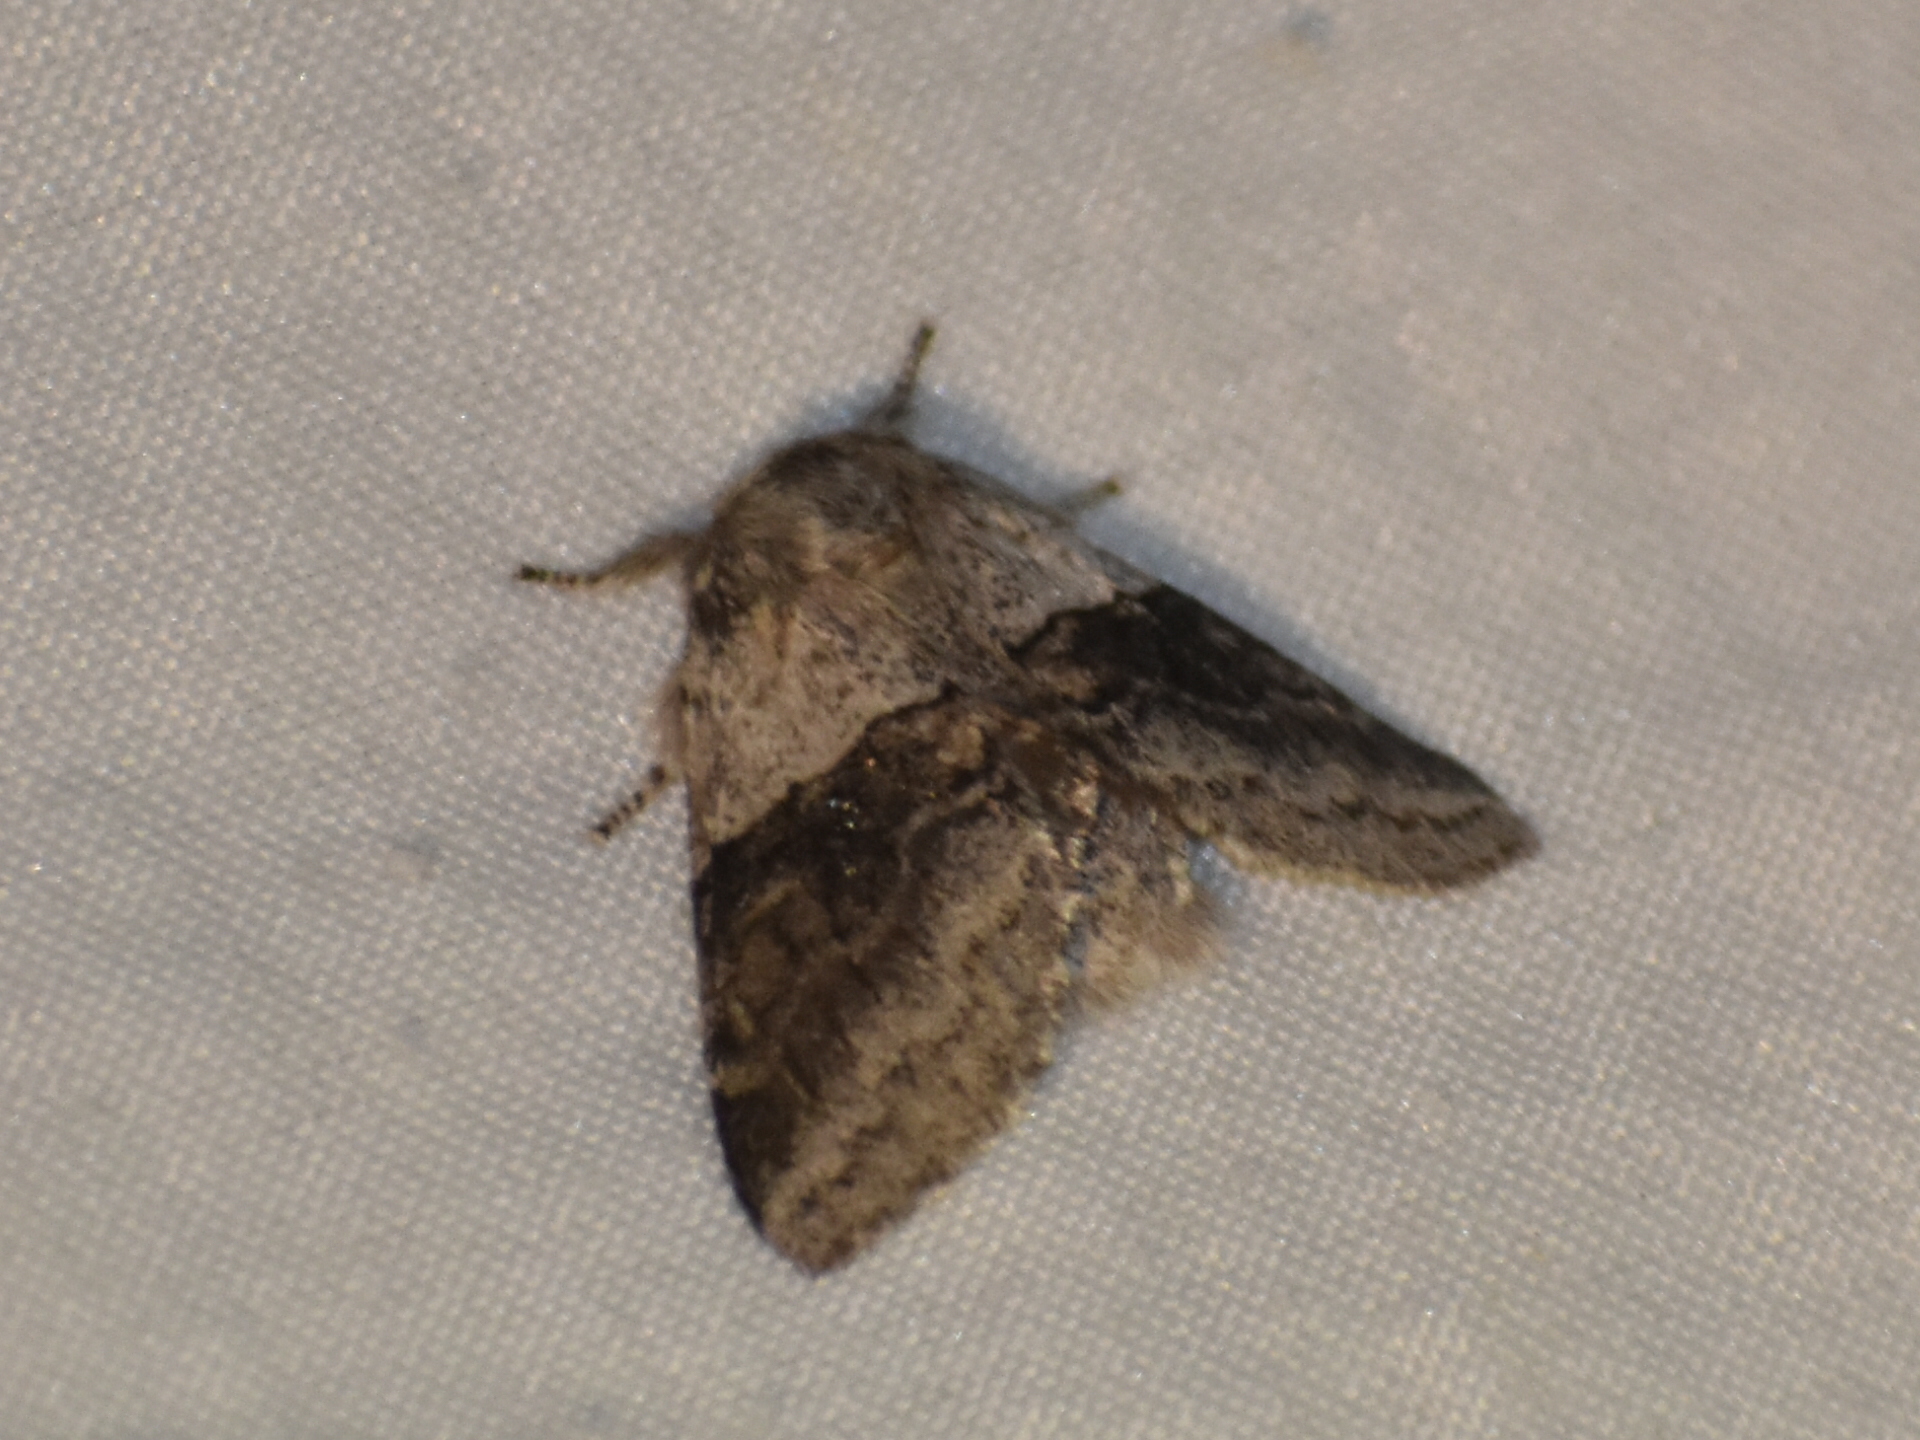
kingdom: Animalia
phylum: Arthropoda
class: Insecta
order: Lepidoptera
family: Notodontidae
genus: Gluphisia
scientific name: Gluphisia septentrionis
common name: Common gluphisia
